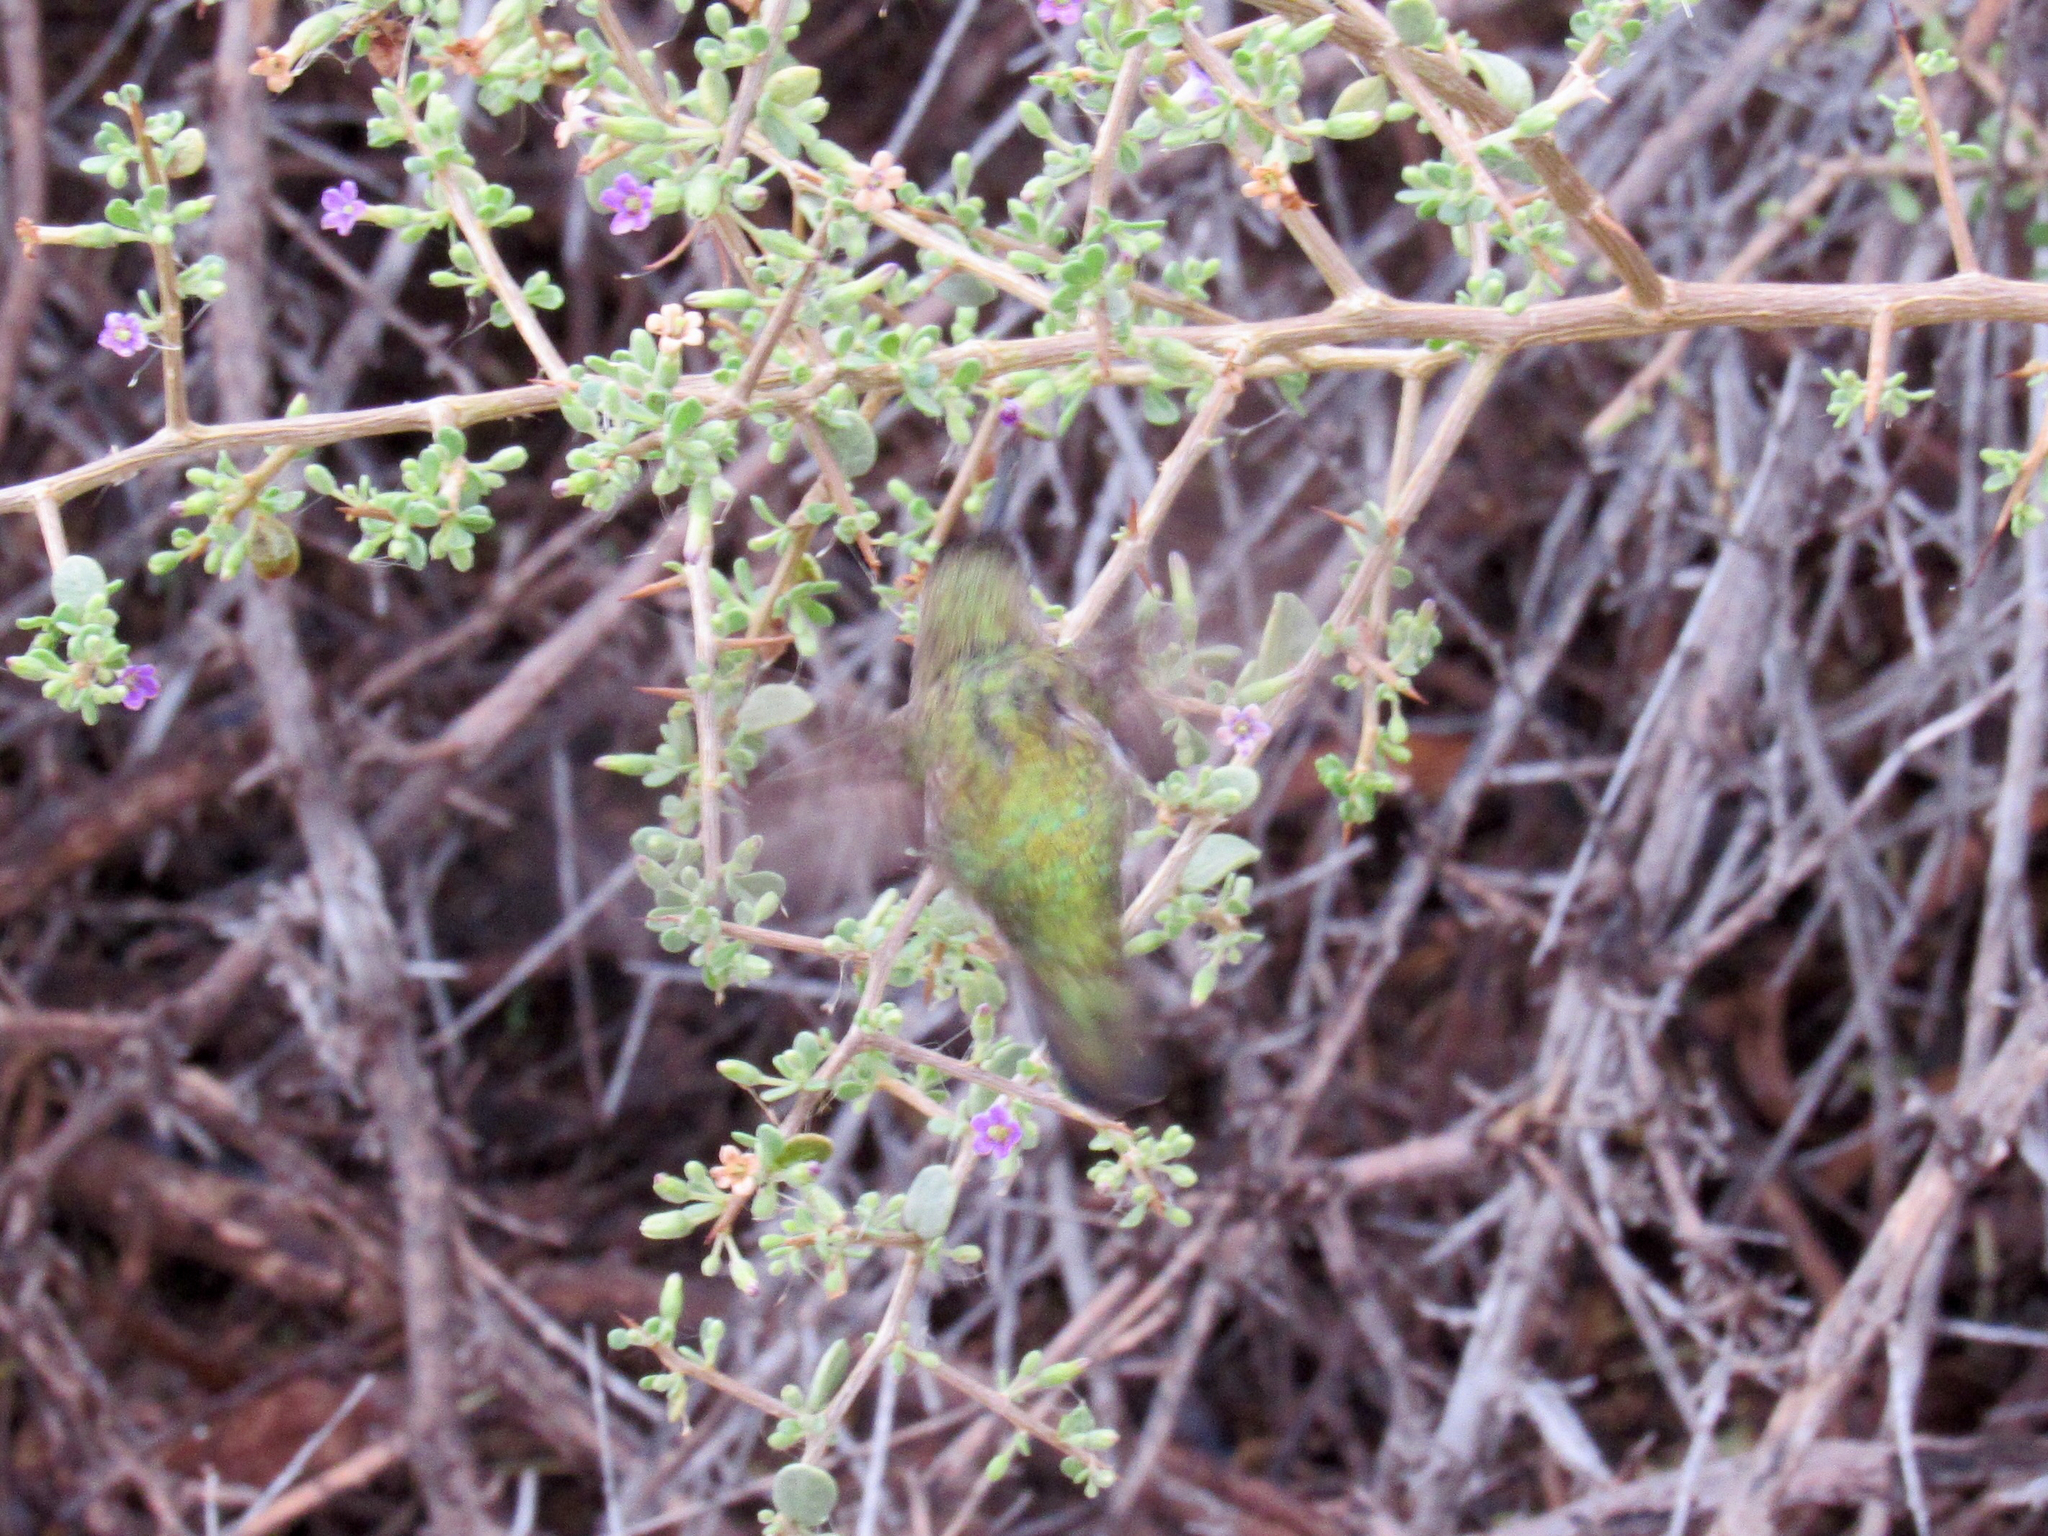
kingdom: Animalia
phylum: Chordata
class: Aves
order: Apodiformes
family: Trochilidae
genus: Calypte
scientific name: Calypte costae
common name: Costa's hummingbird
